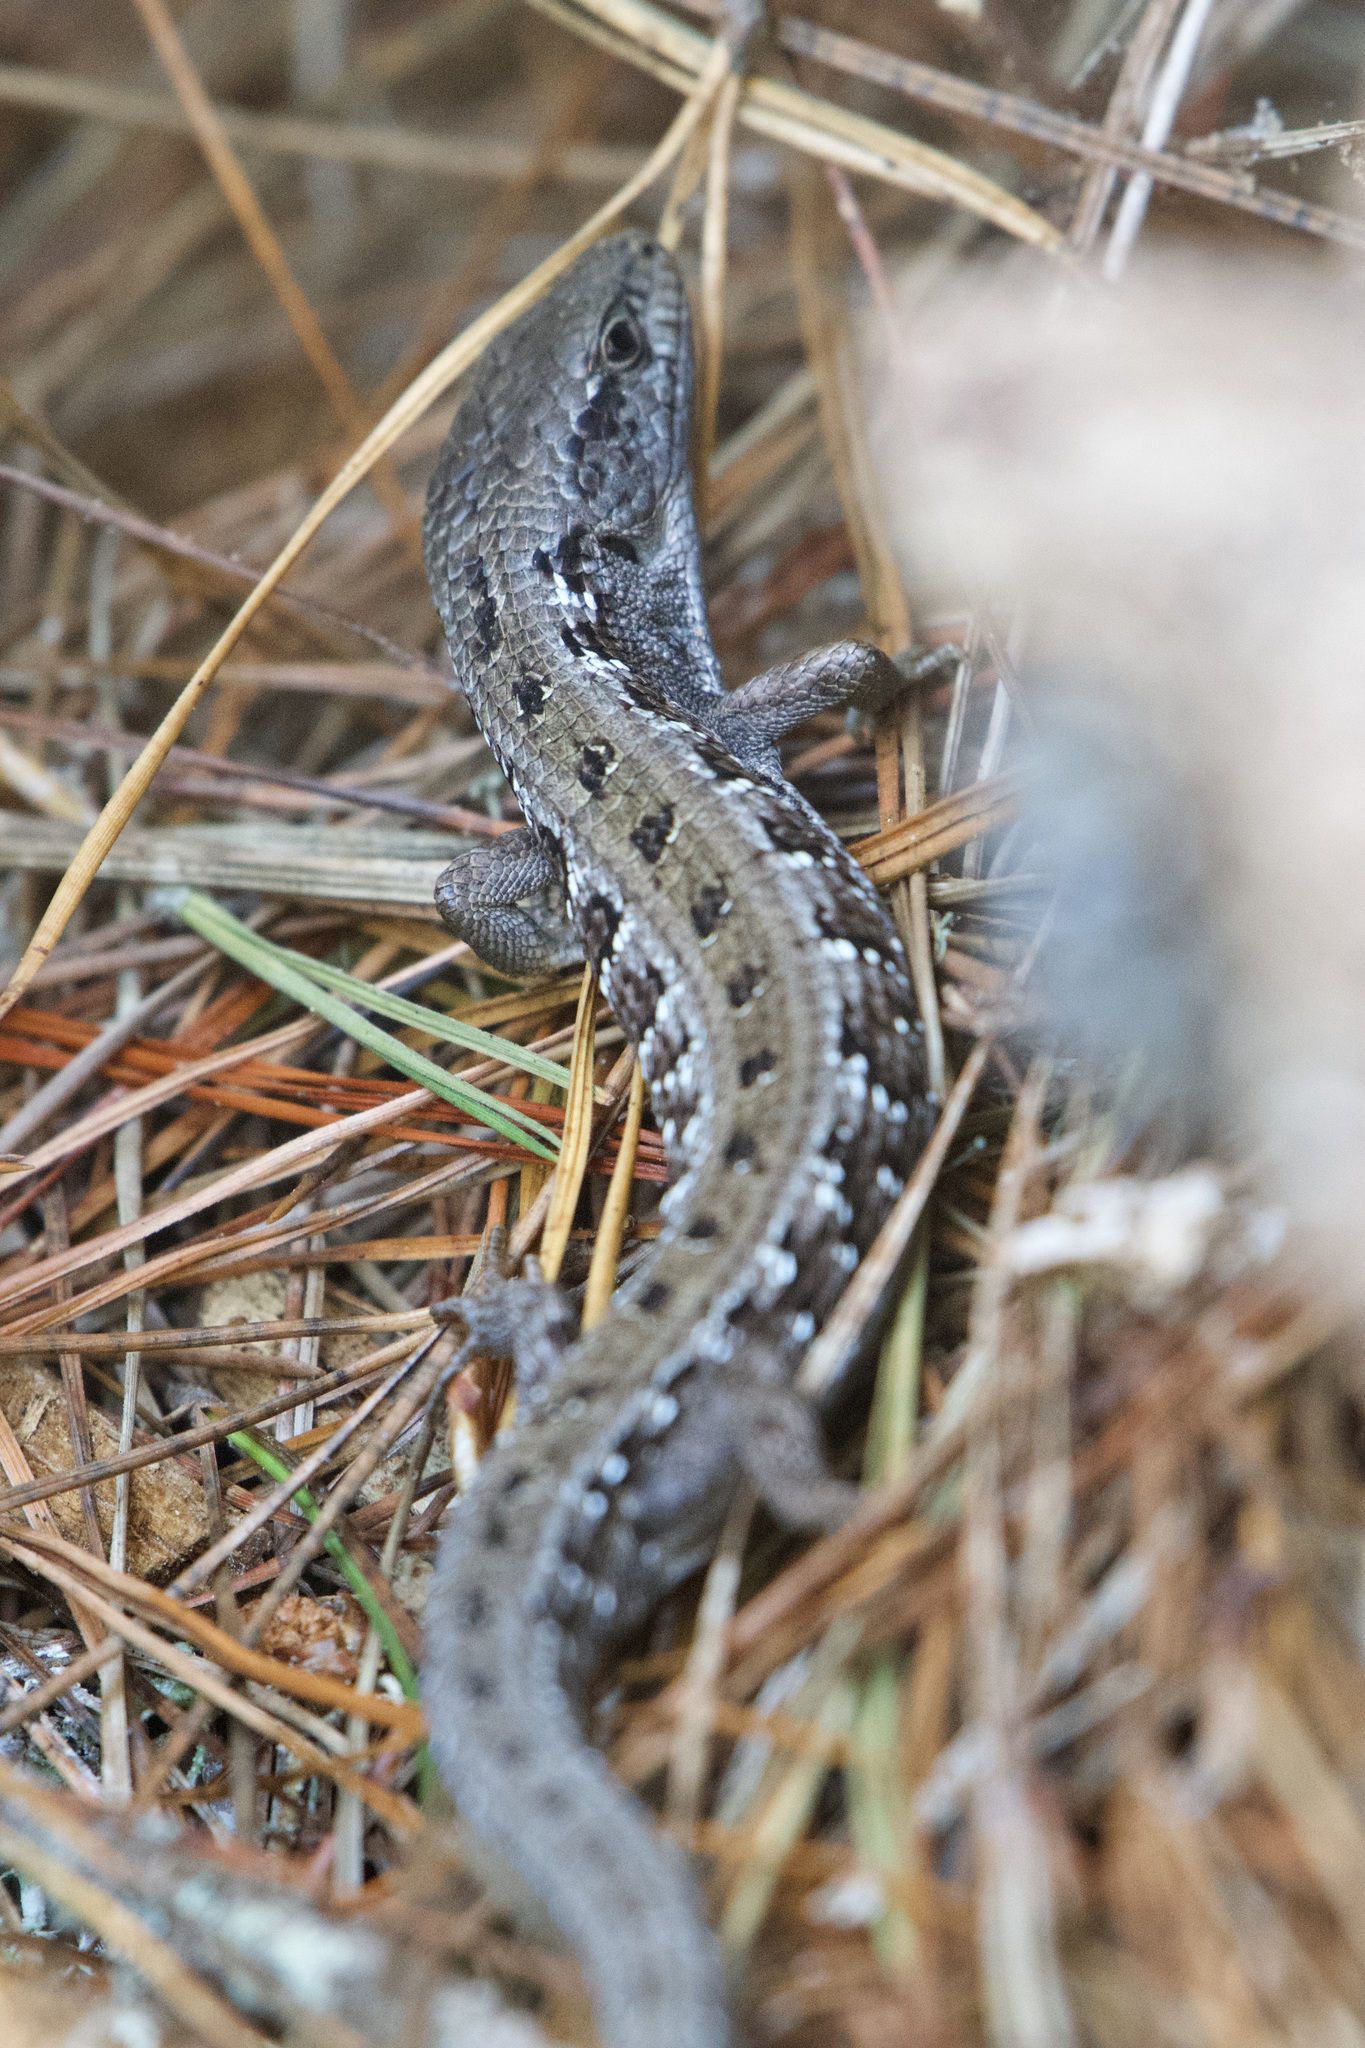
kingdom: Animalia
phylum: Chordata
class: Squamata
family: Anguidae
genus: Elgaria
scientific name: Elgaria coerulea
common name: Northern alligator lizard
